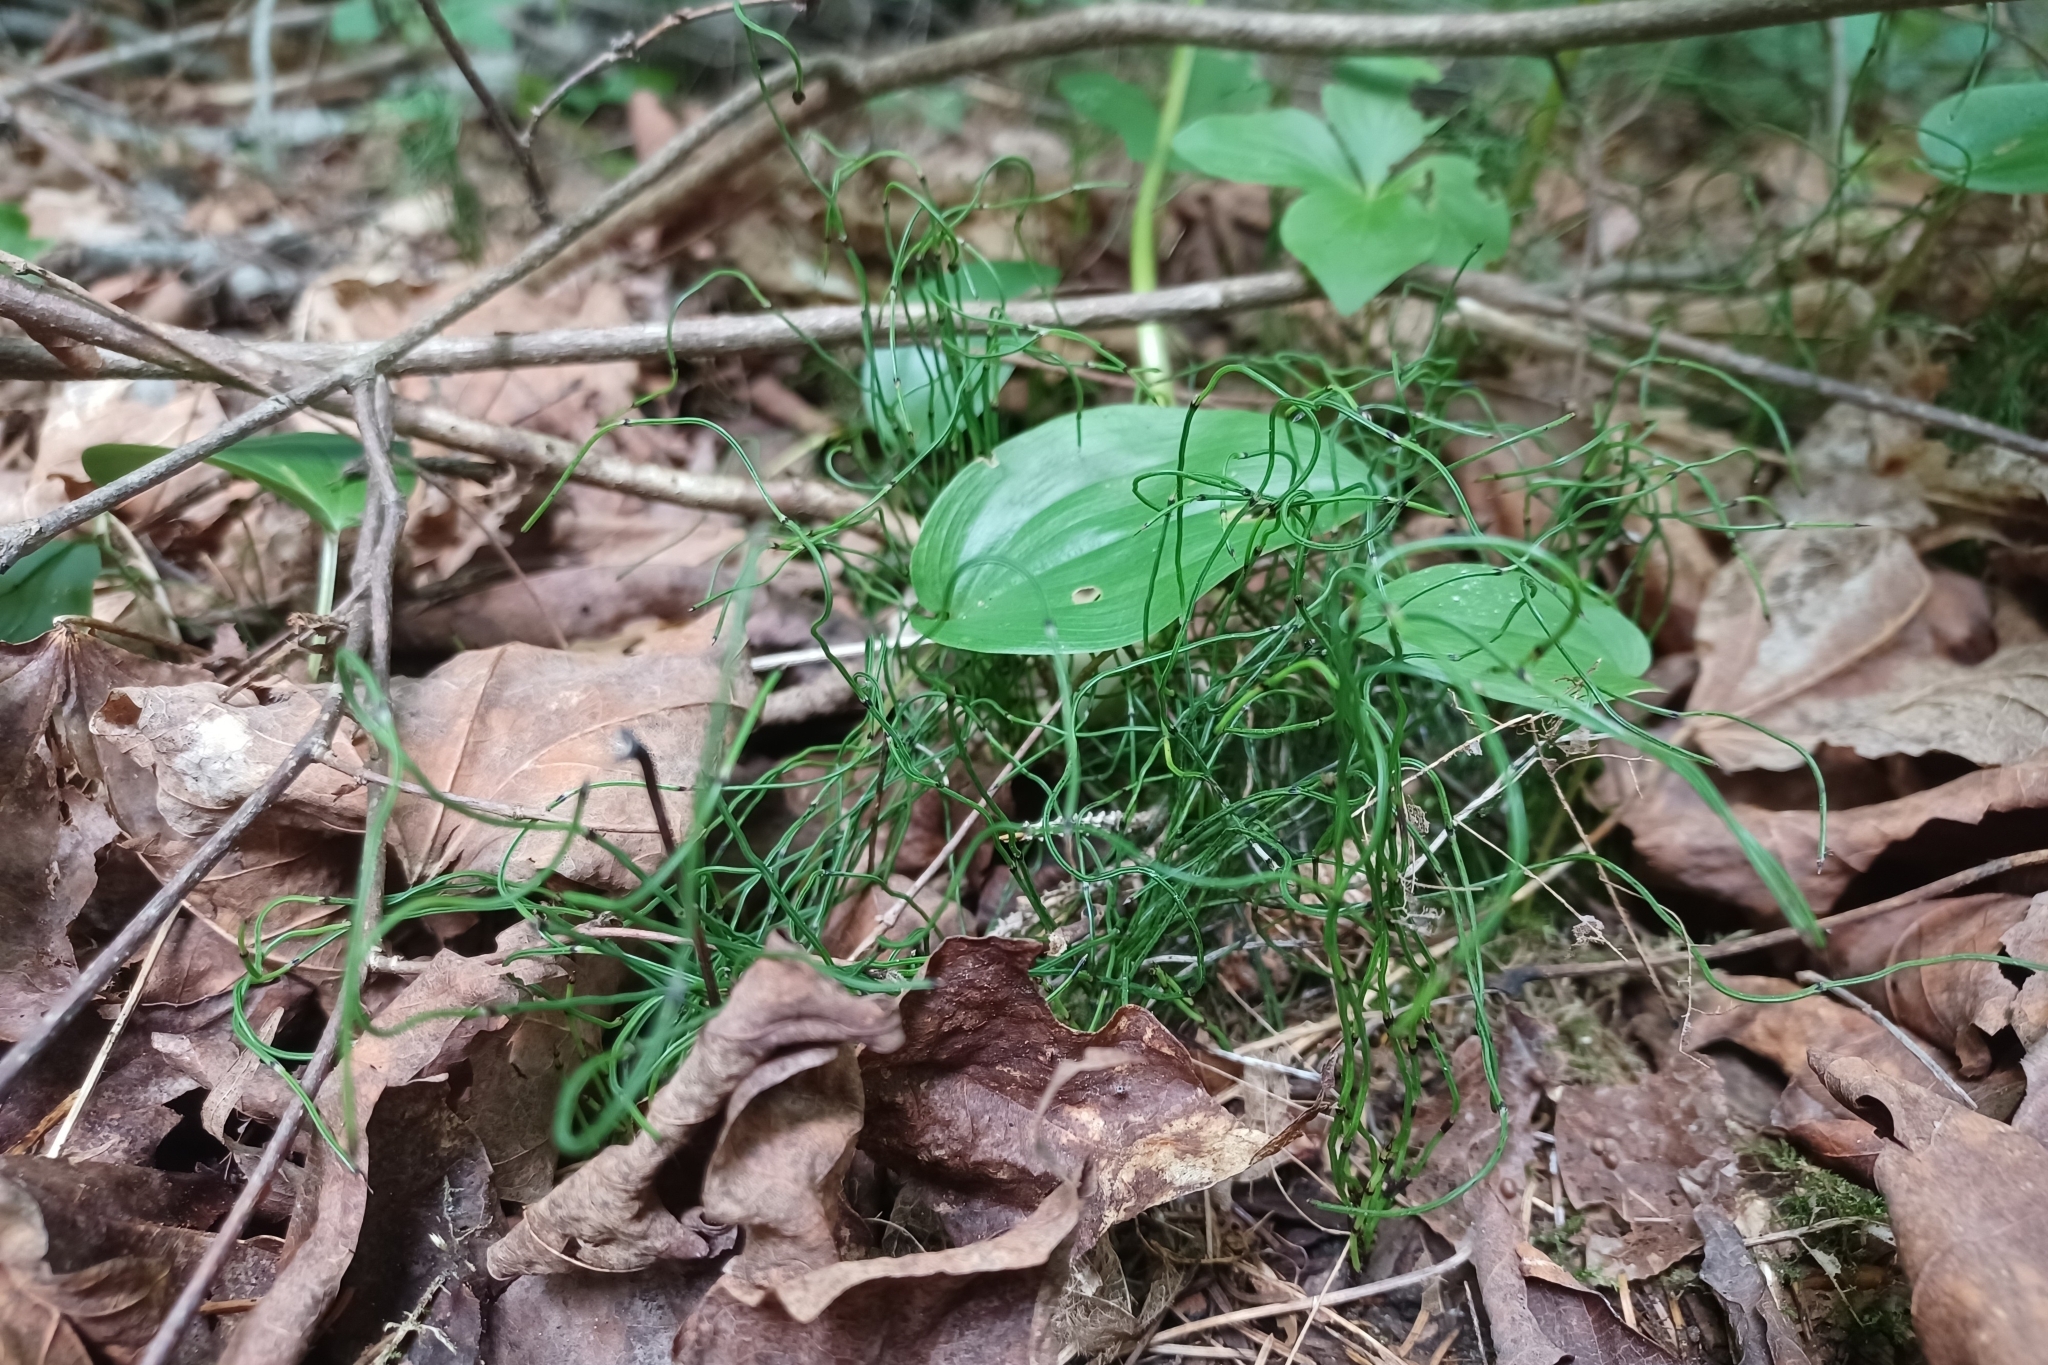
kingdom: Plantae
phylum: Tracheophyta
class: Polypodiopsida
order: Equisetales
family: Equisetaceae
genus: Equisetum
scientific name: Equisetum scirpoides
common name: Delicate horsetail
